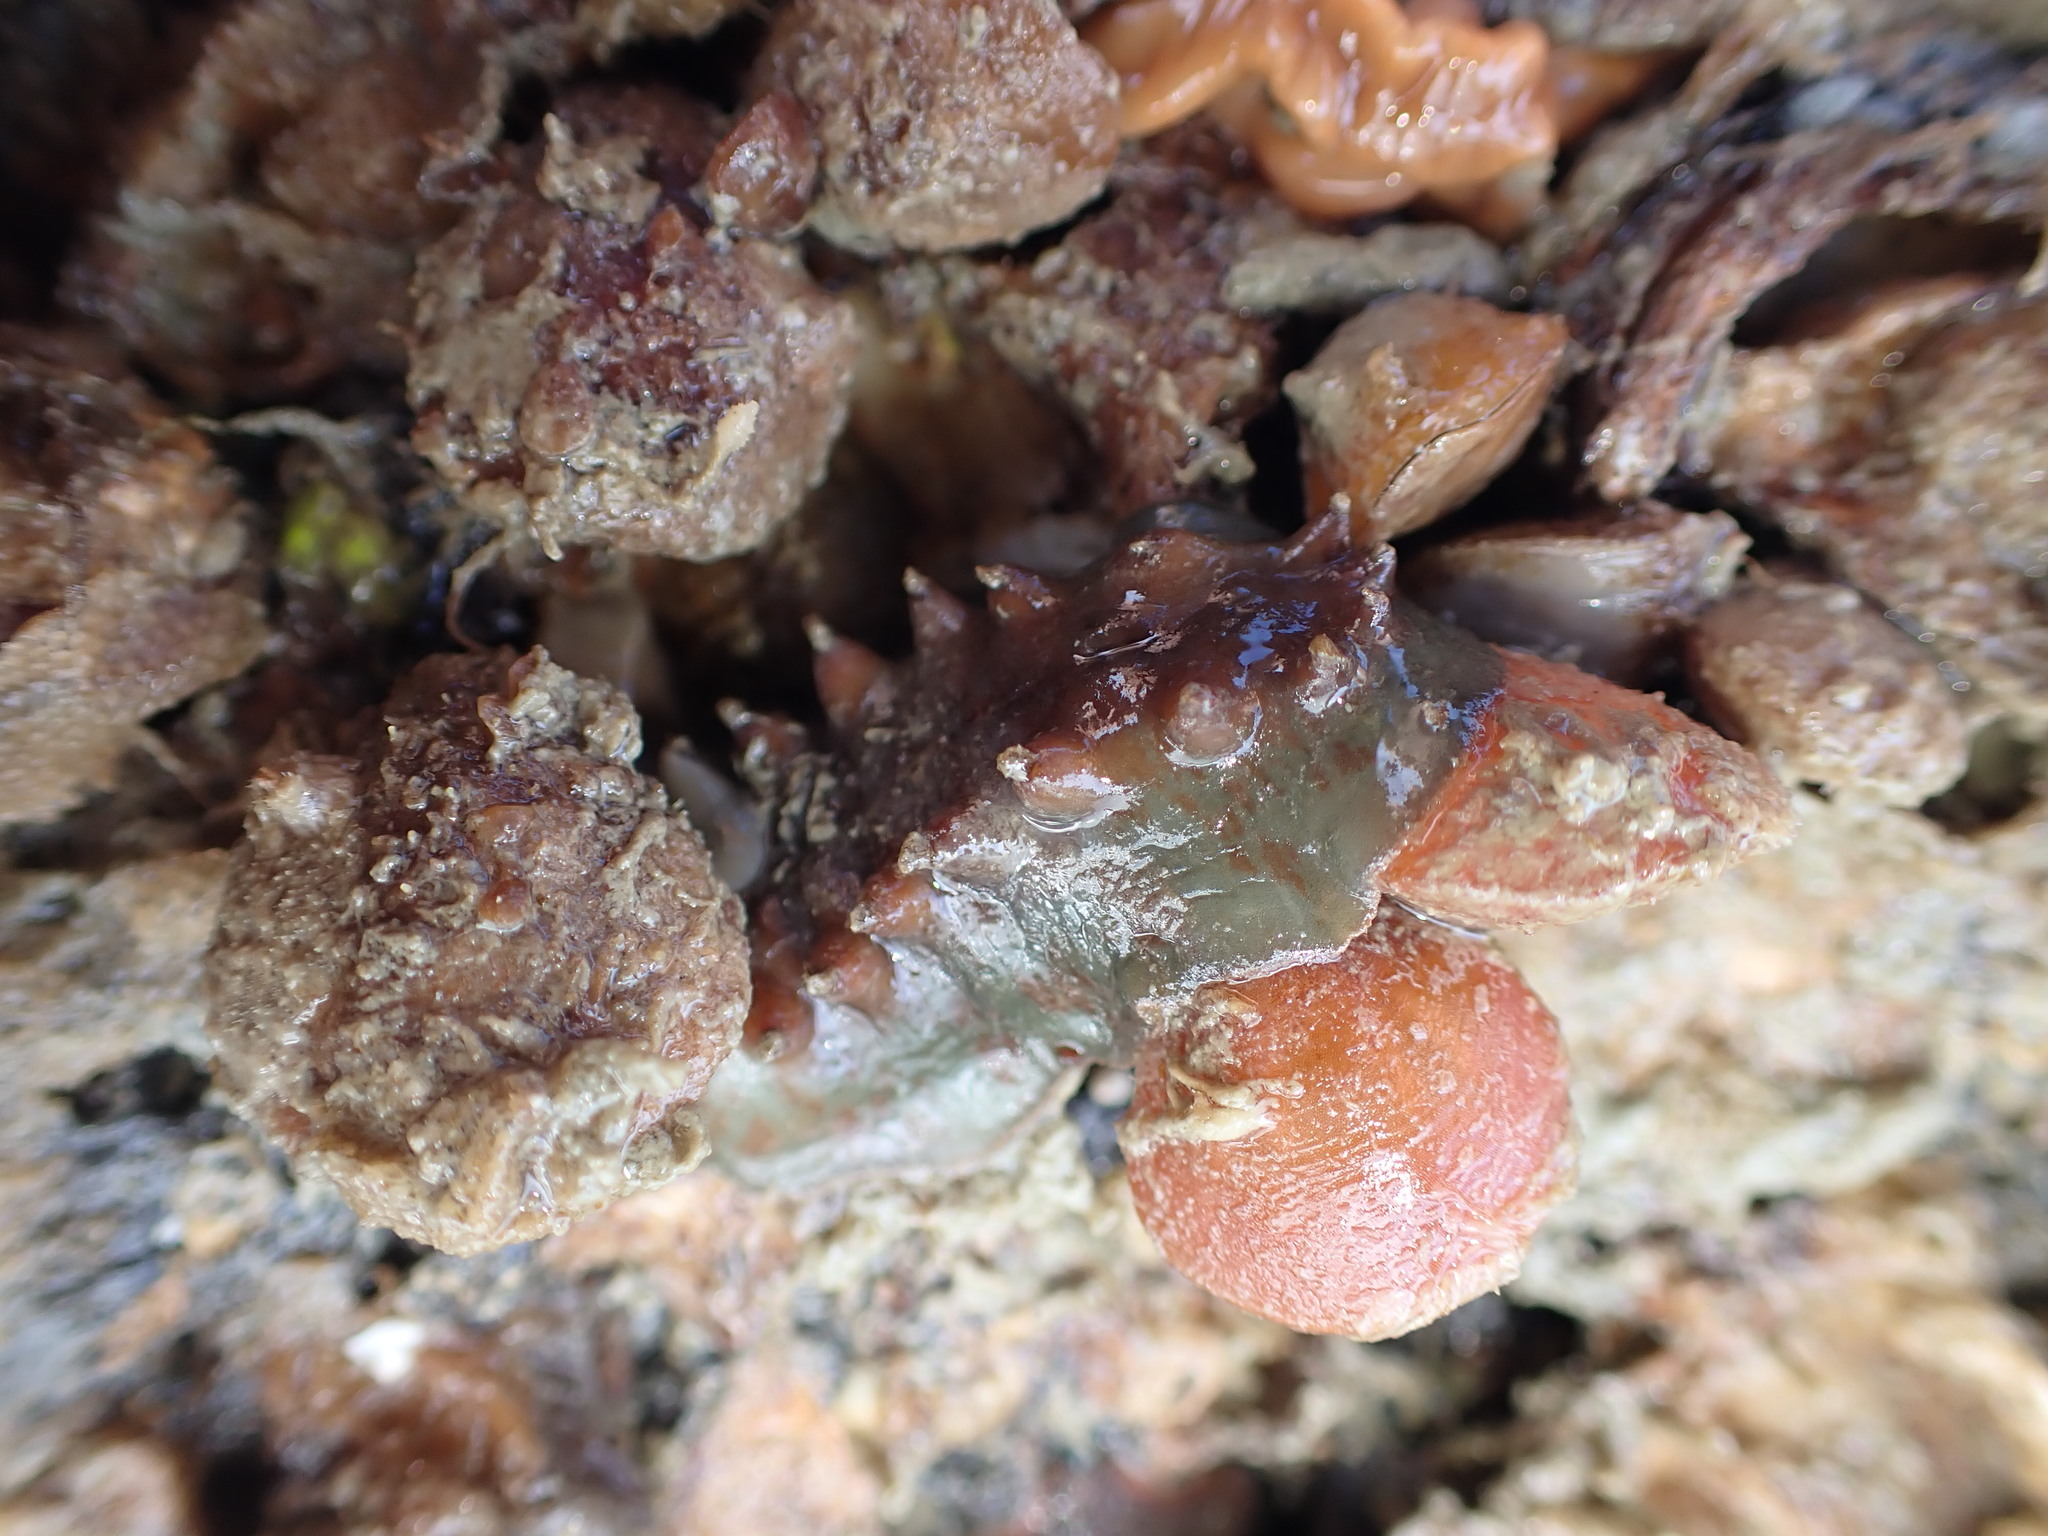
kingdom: Animalia
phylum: Mollusca
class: Polyplacophora
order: Chitonida
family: Acanthochitonidae
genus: Cryptoconchus
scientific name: Cryptoconchus porosus
